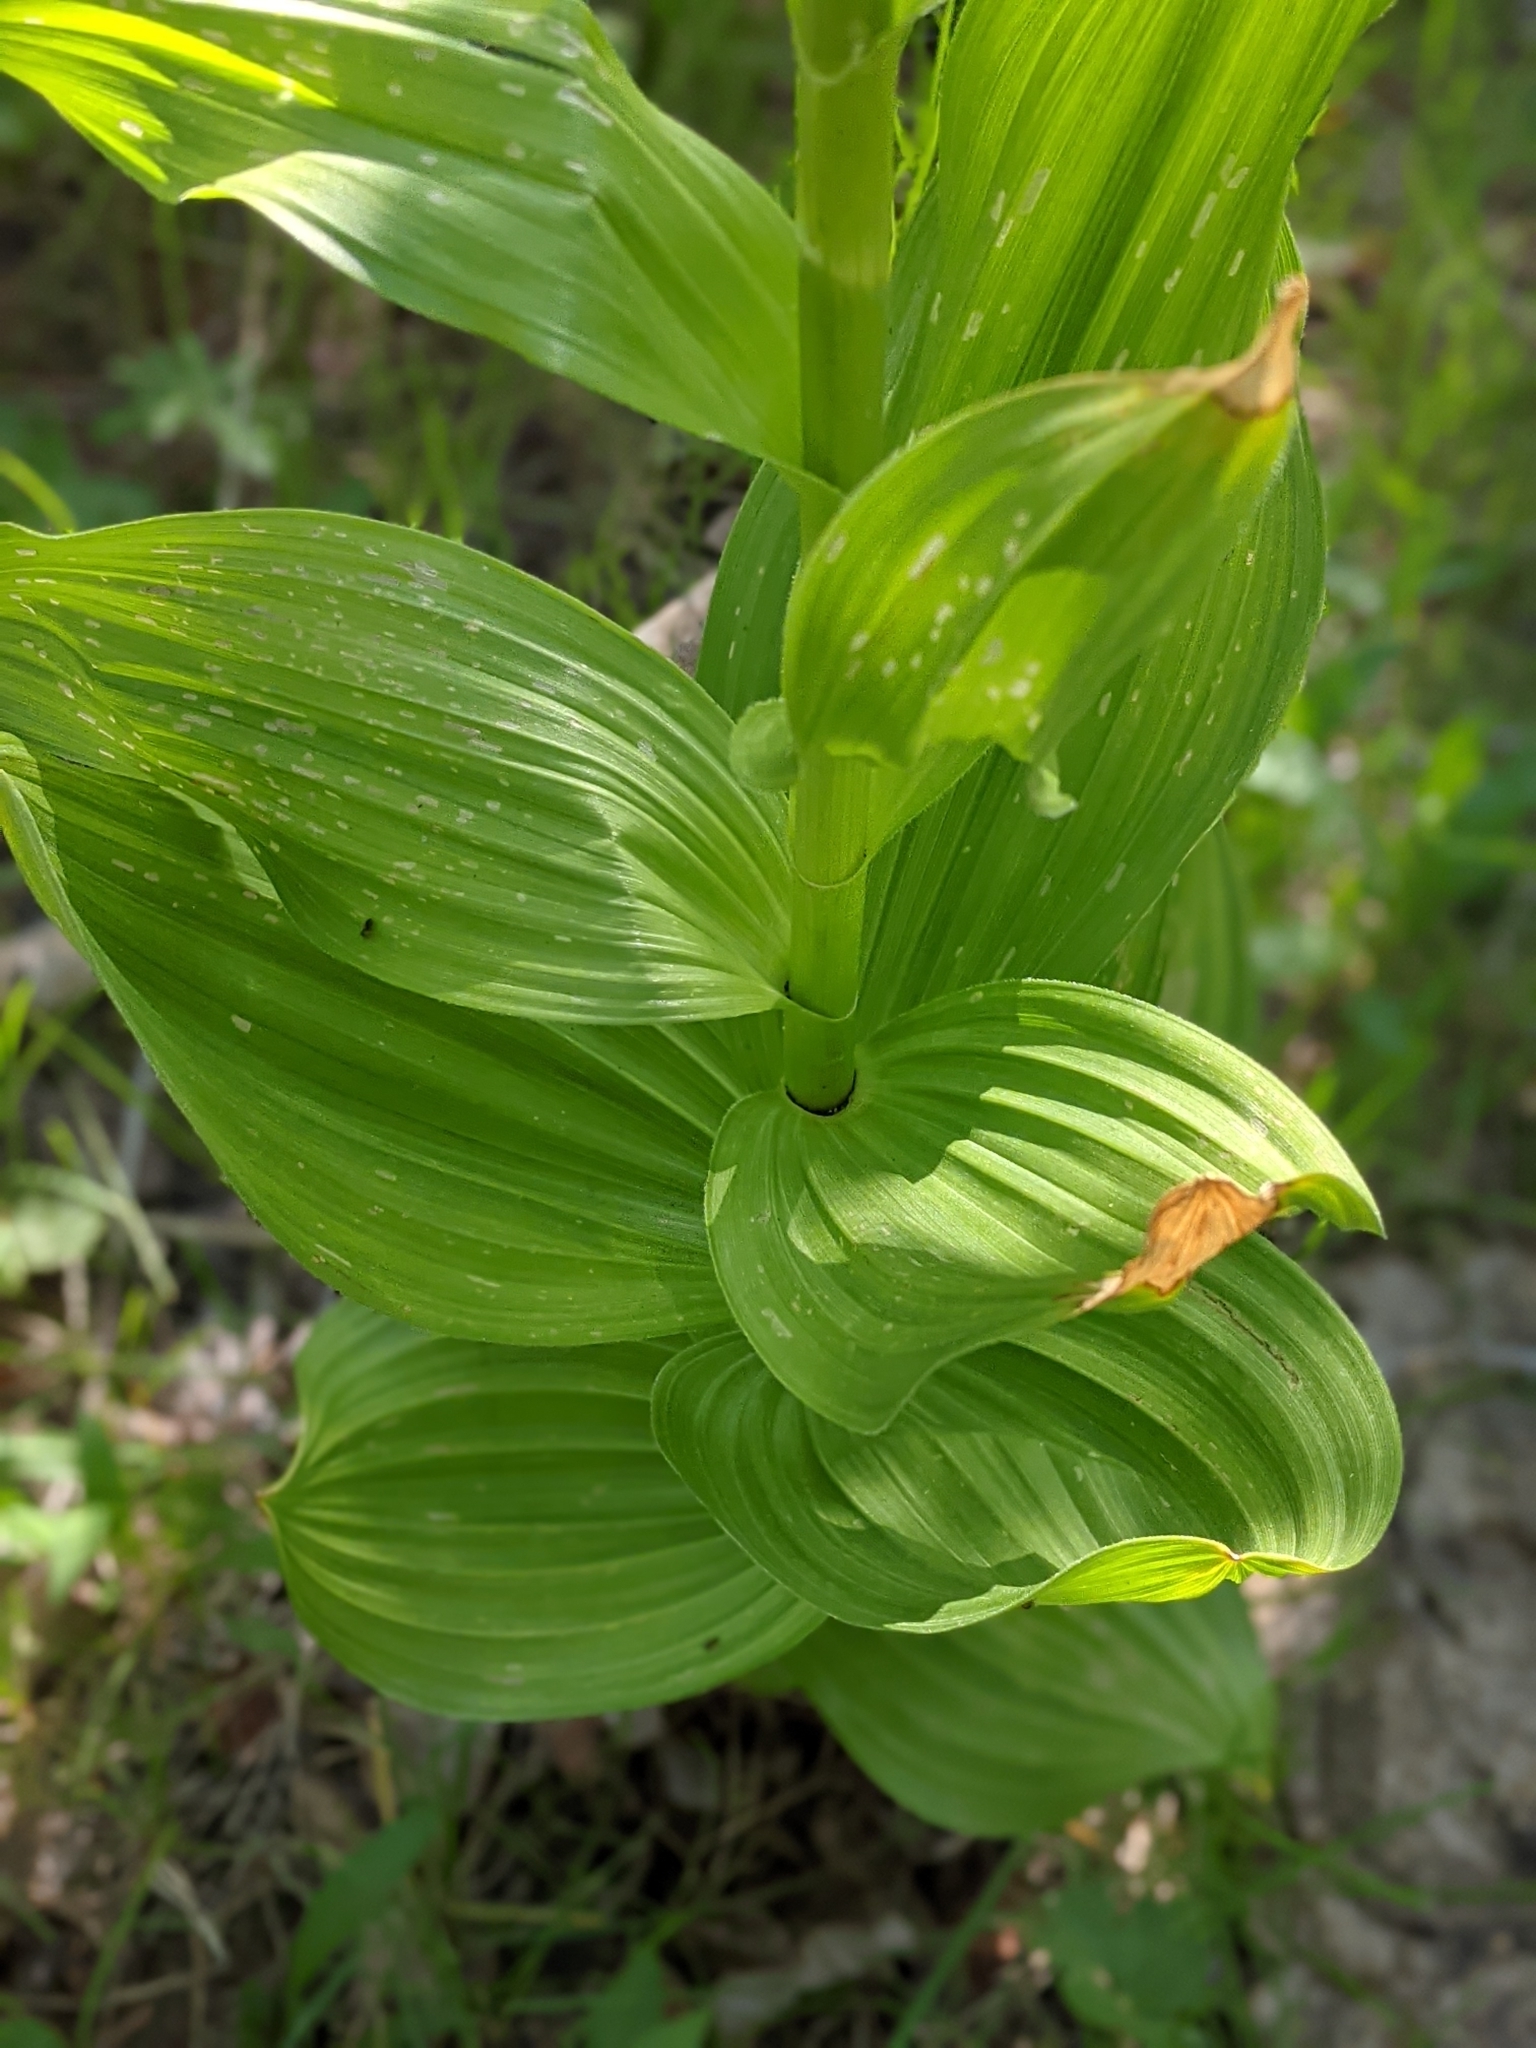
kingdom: Plantae
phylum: Tracheophyta
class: Liliopsida
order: Liliales
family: Melanthiaceae
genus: Veratrum
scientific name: Veratrum californicum
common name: California veratrum
